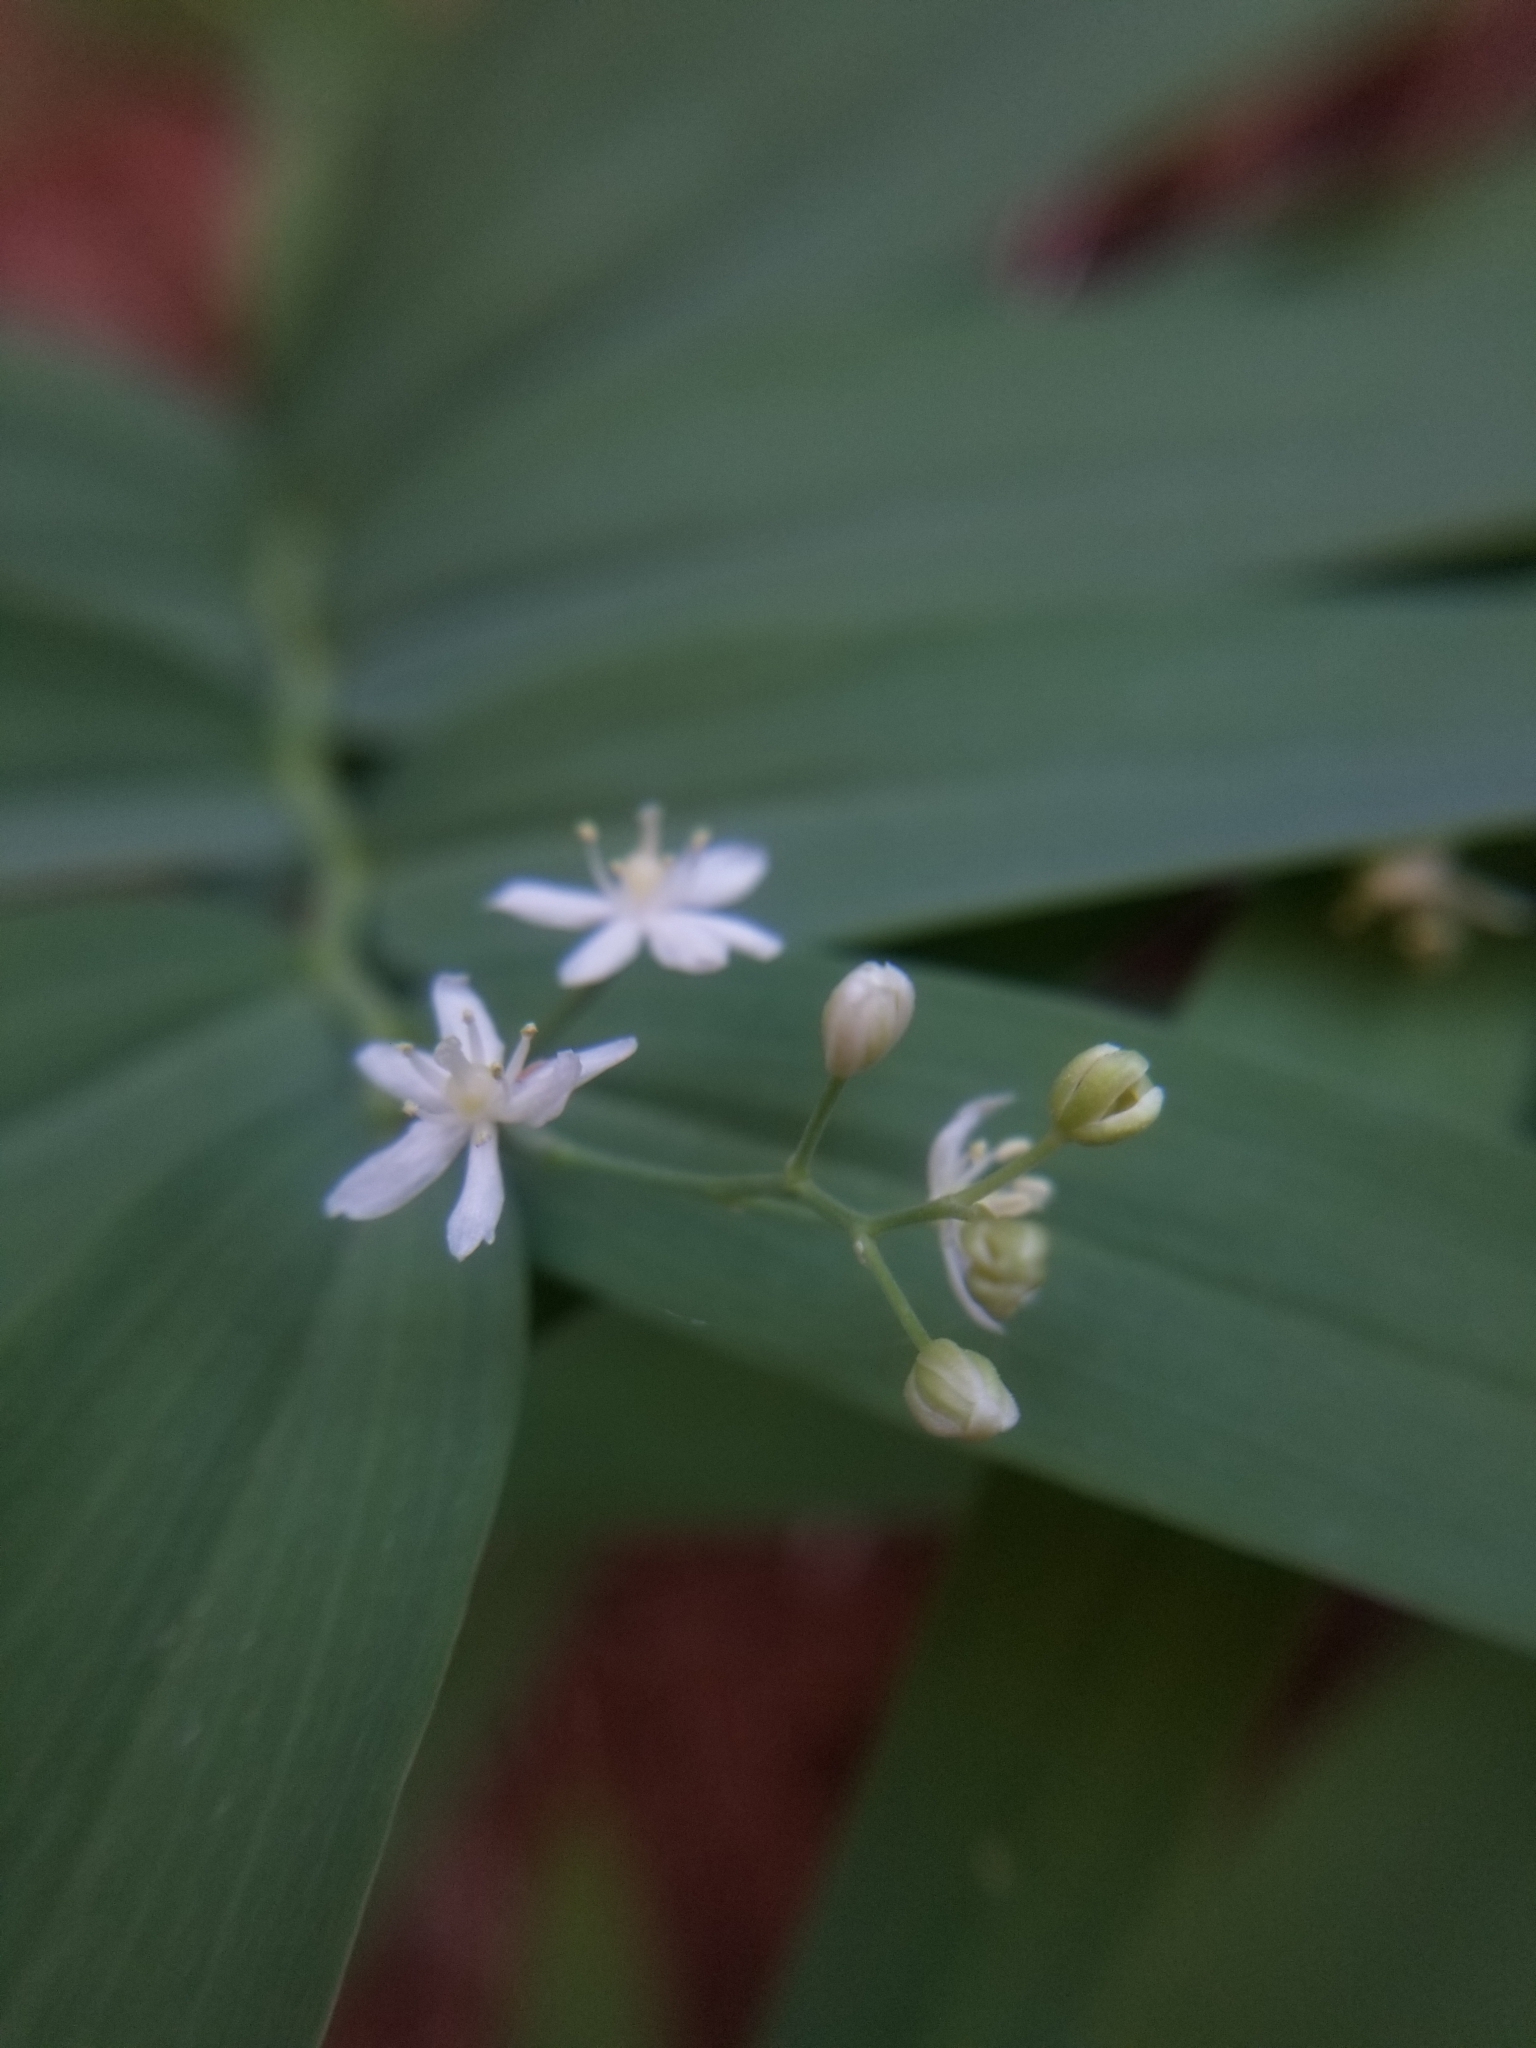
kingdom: Plantae
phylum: Tracheophyta
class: Liliopsida
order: Asparagales
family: Asparagaceae
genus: Maianthemum
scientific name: Maianthemum stellatum
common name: Little false solomon's seal
